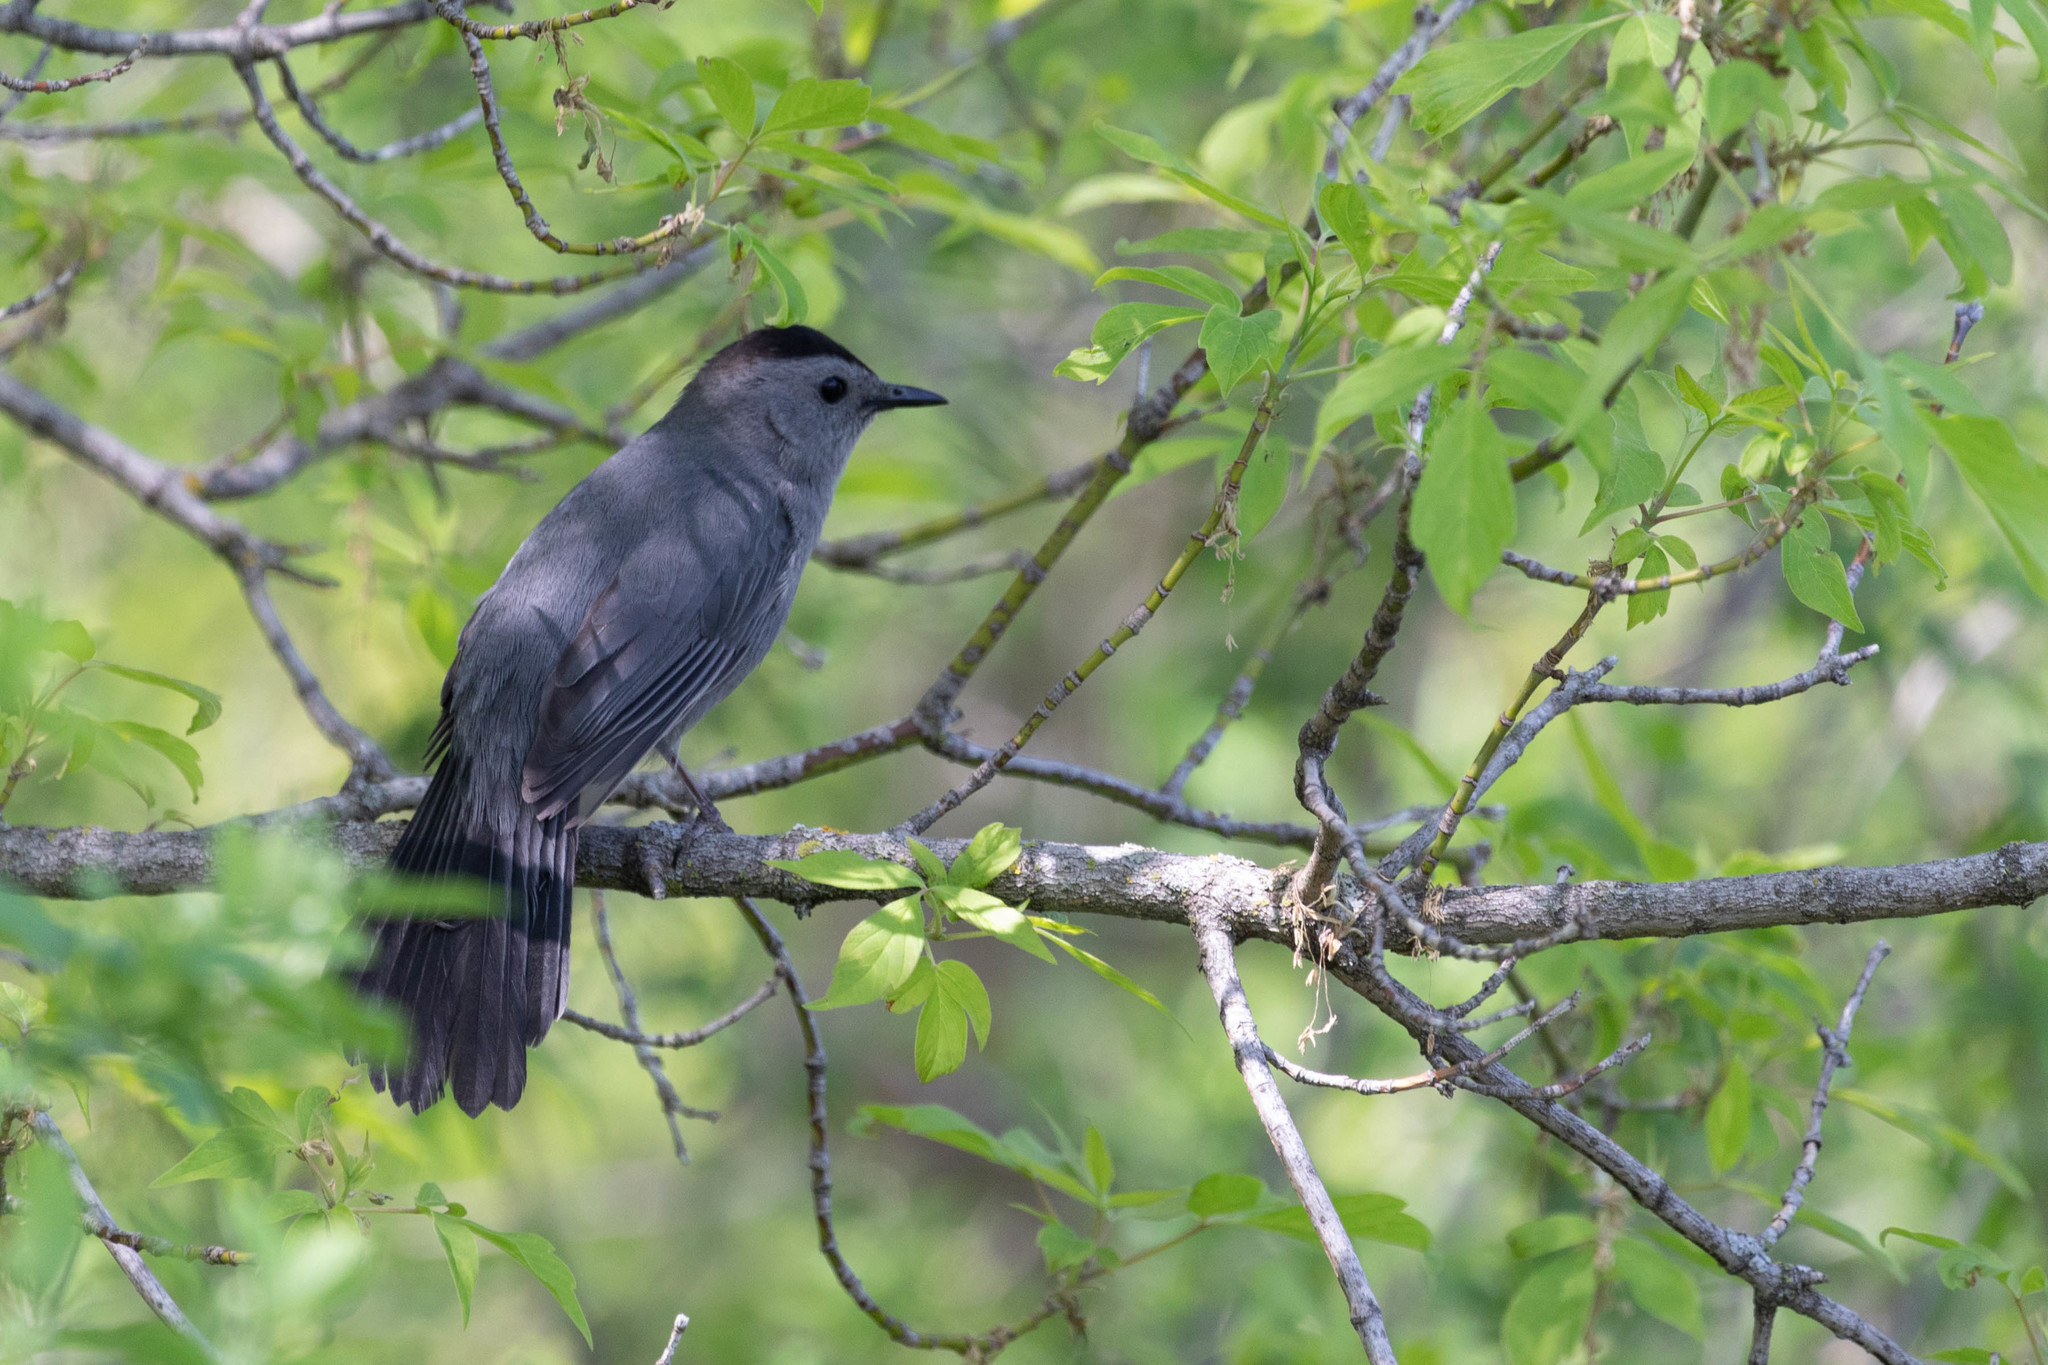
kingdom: Animalia
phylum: Chordata
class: Aves
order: Passeriformes
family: Mimidae
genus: Dumetella
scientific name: Dumetella carolinensis
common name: Gray catbird
